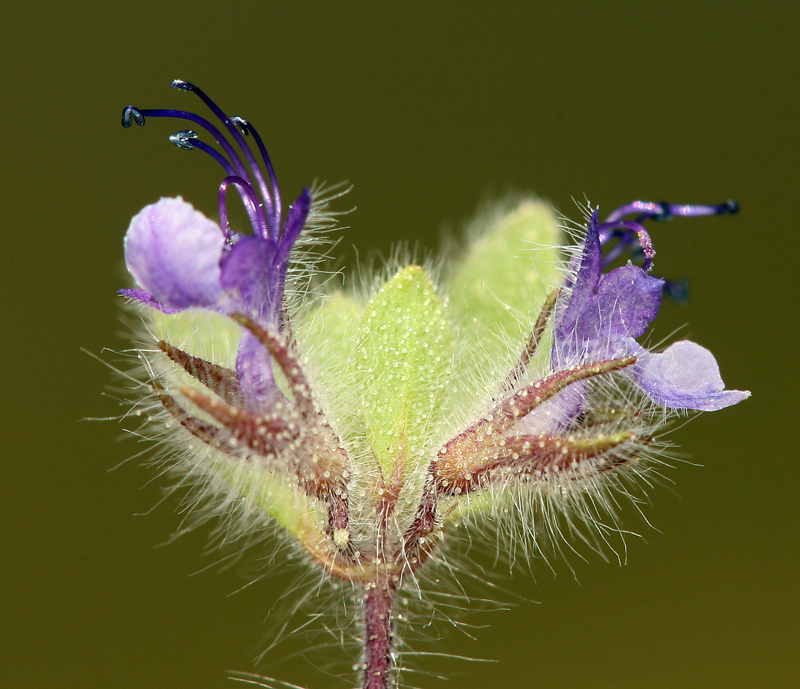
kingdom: Plantae
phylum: Tracheophyta
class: Magnoliopsida
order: Lamiales
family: Lamiaceae
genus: Trichostema
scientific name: Trichostema oblongum
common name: Mountain bluecurls
